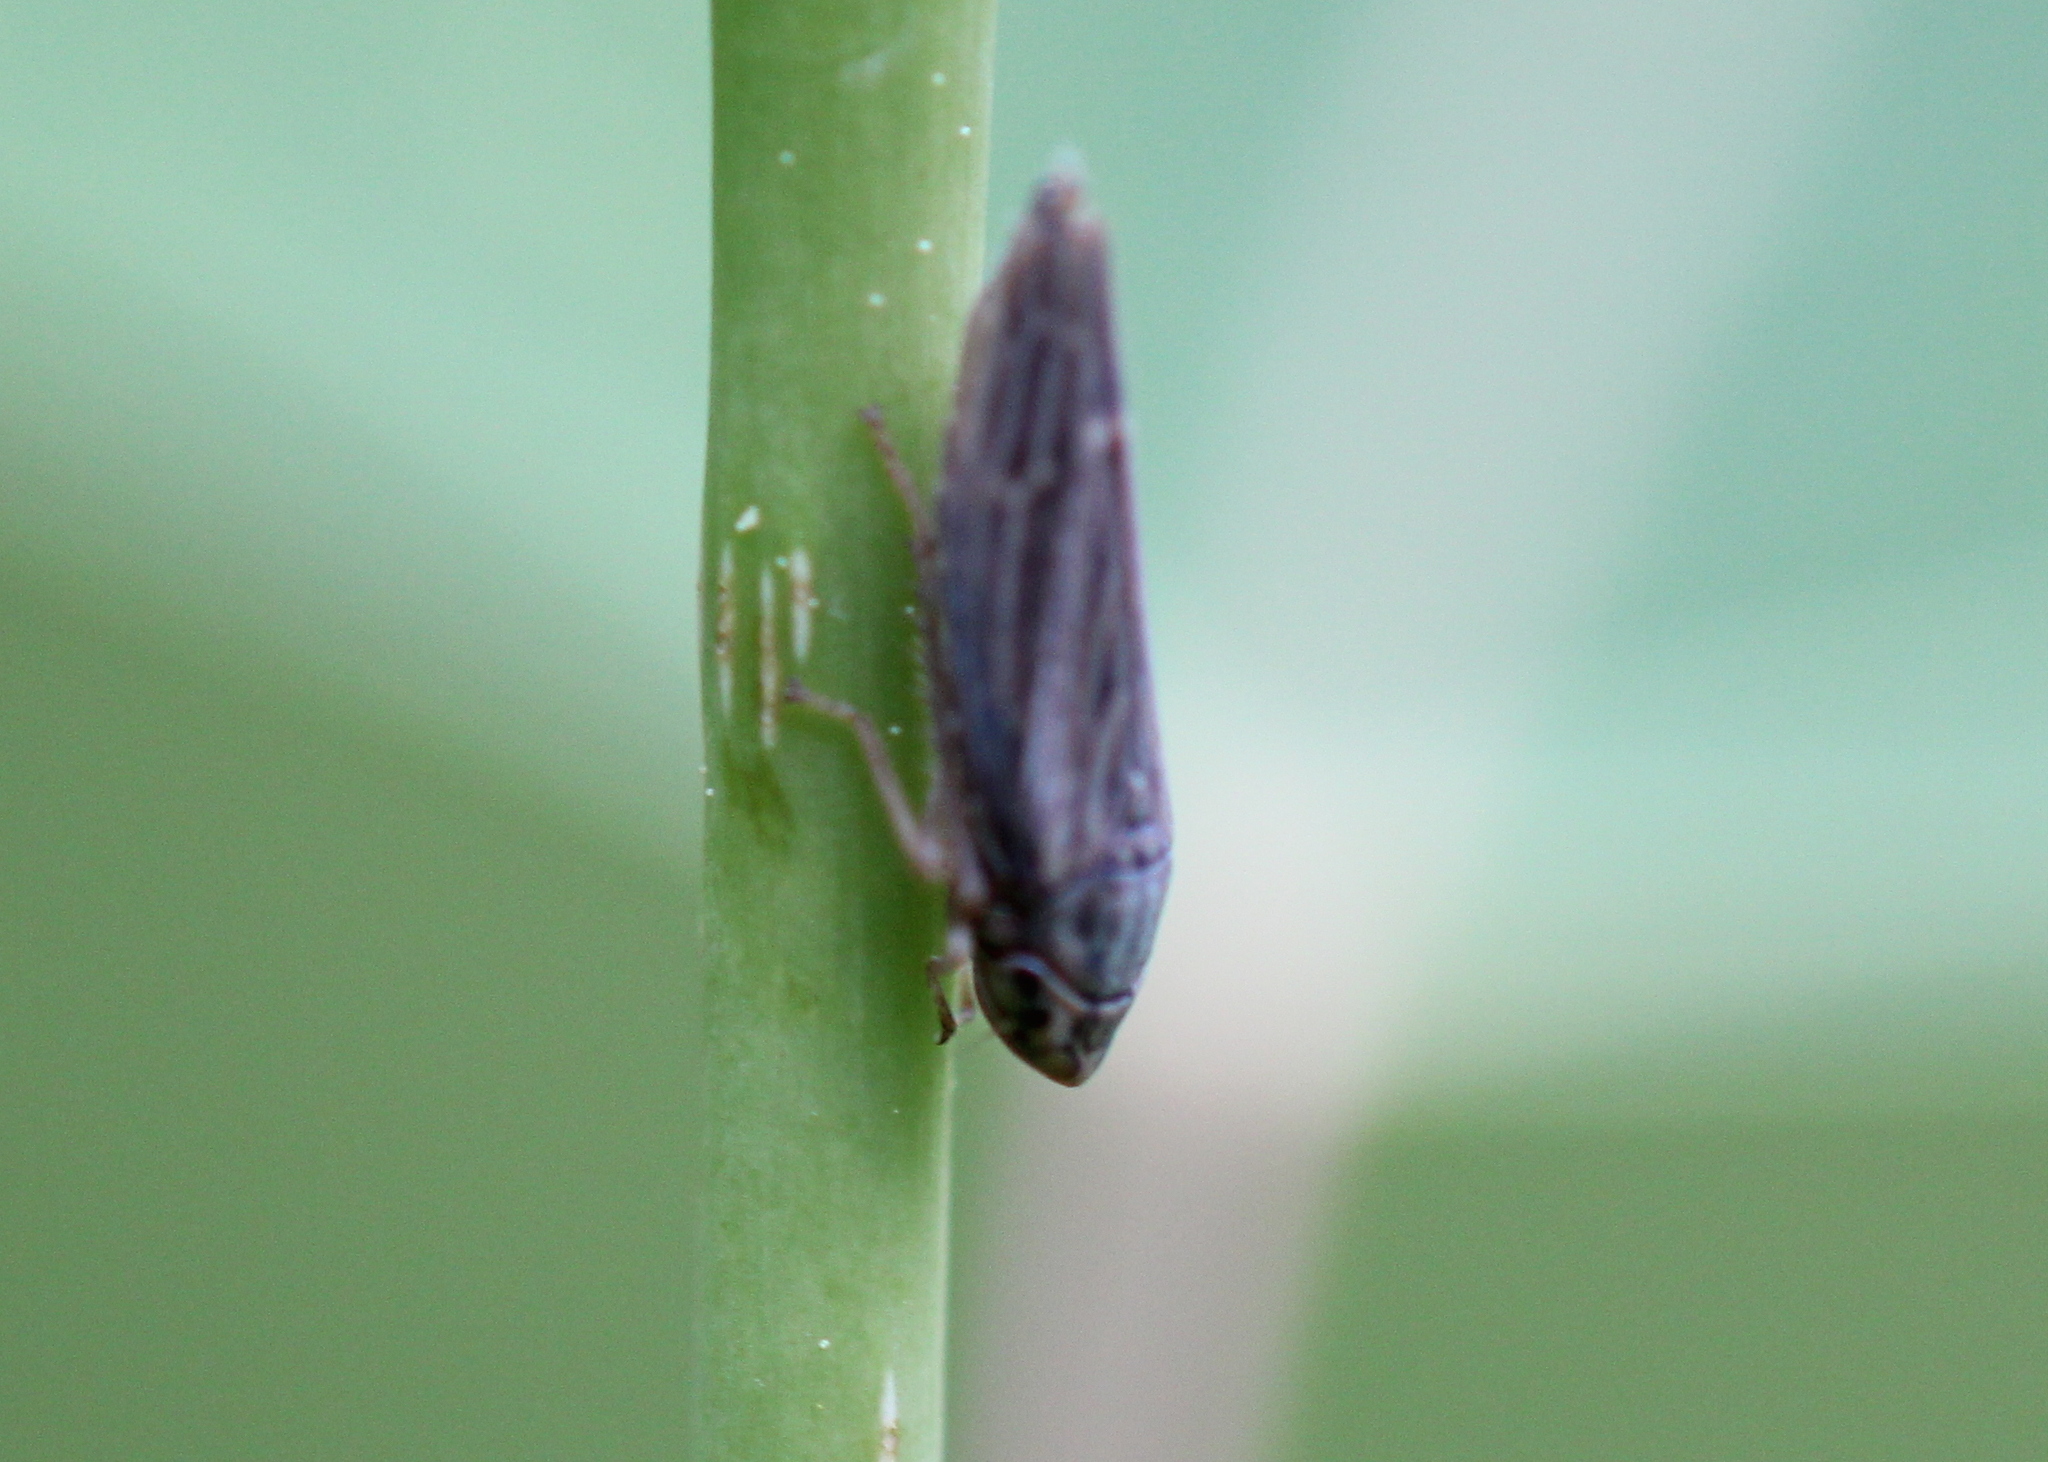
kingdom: Animalia
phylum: Arthropoda
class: Insecta
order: Hemiptera
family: Cicadellidae
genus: Neokolla
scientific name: Neokolla hieroglyphica
